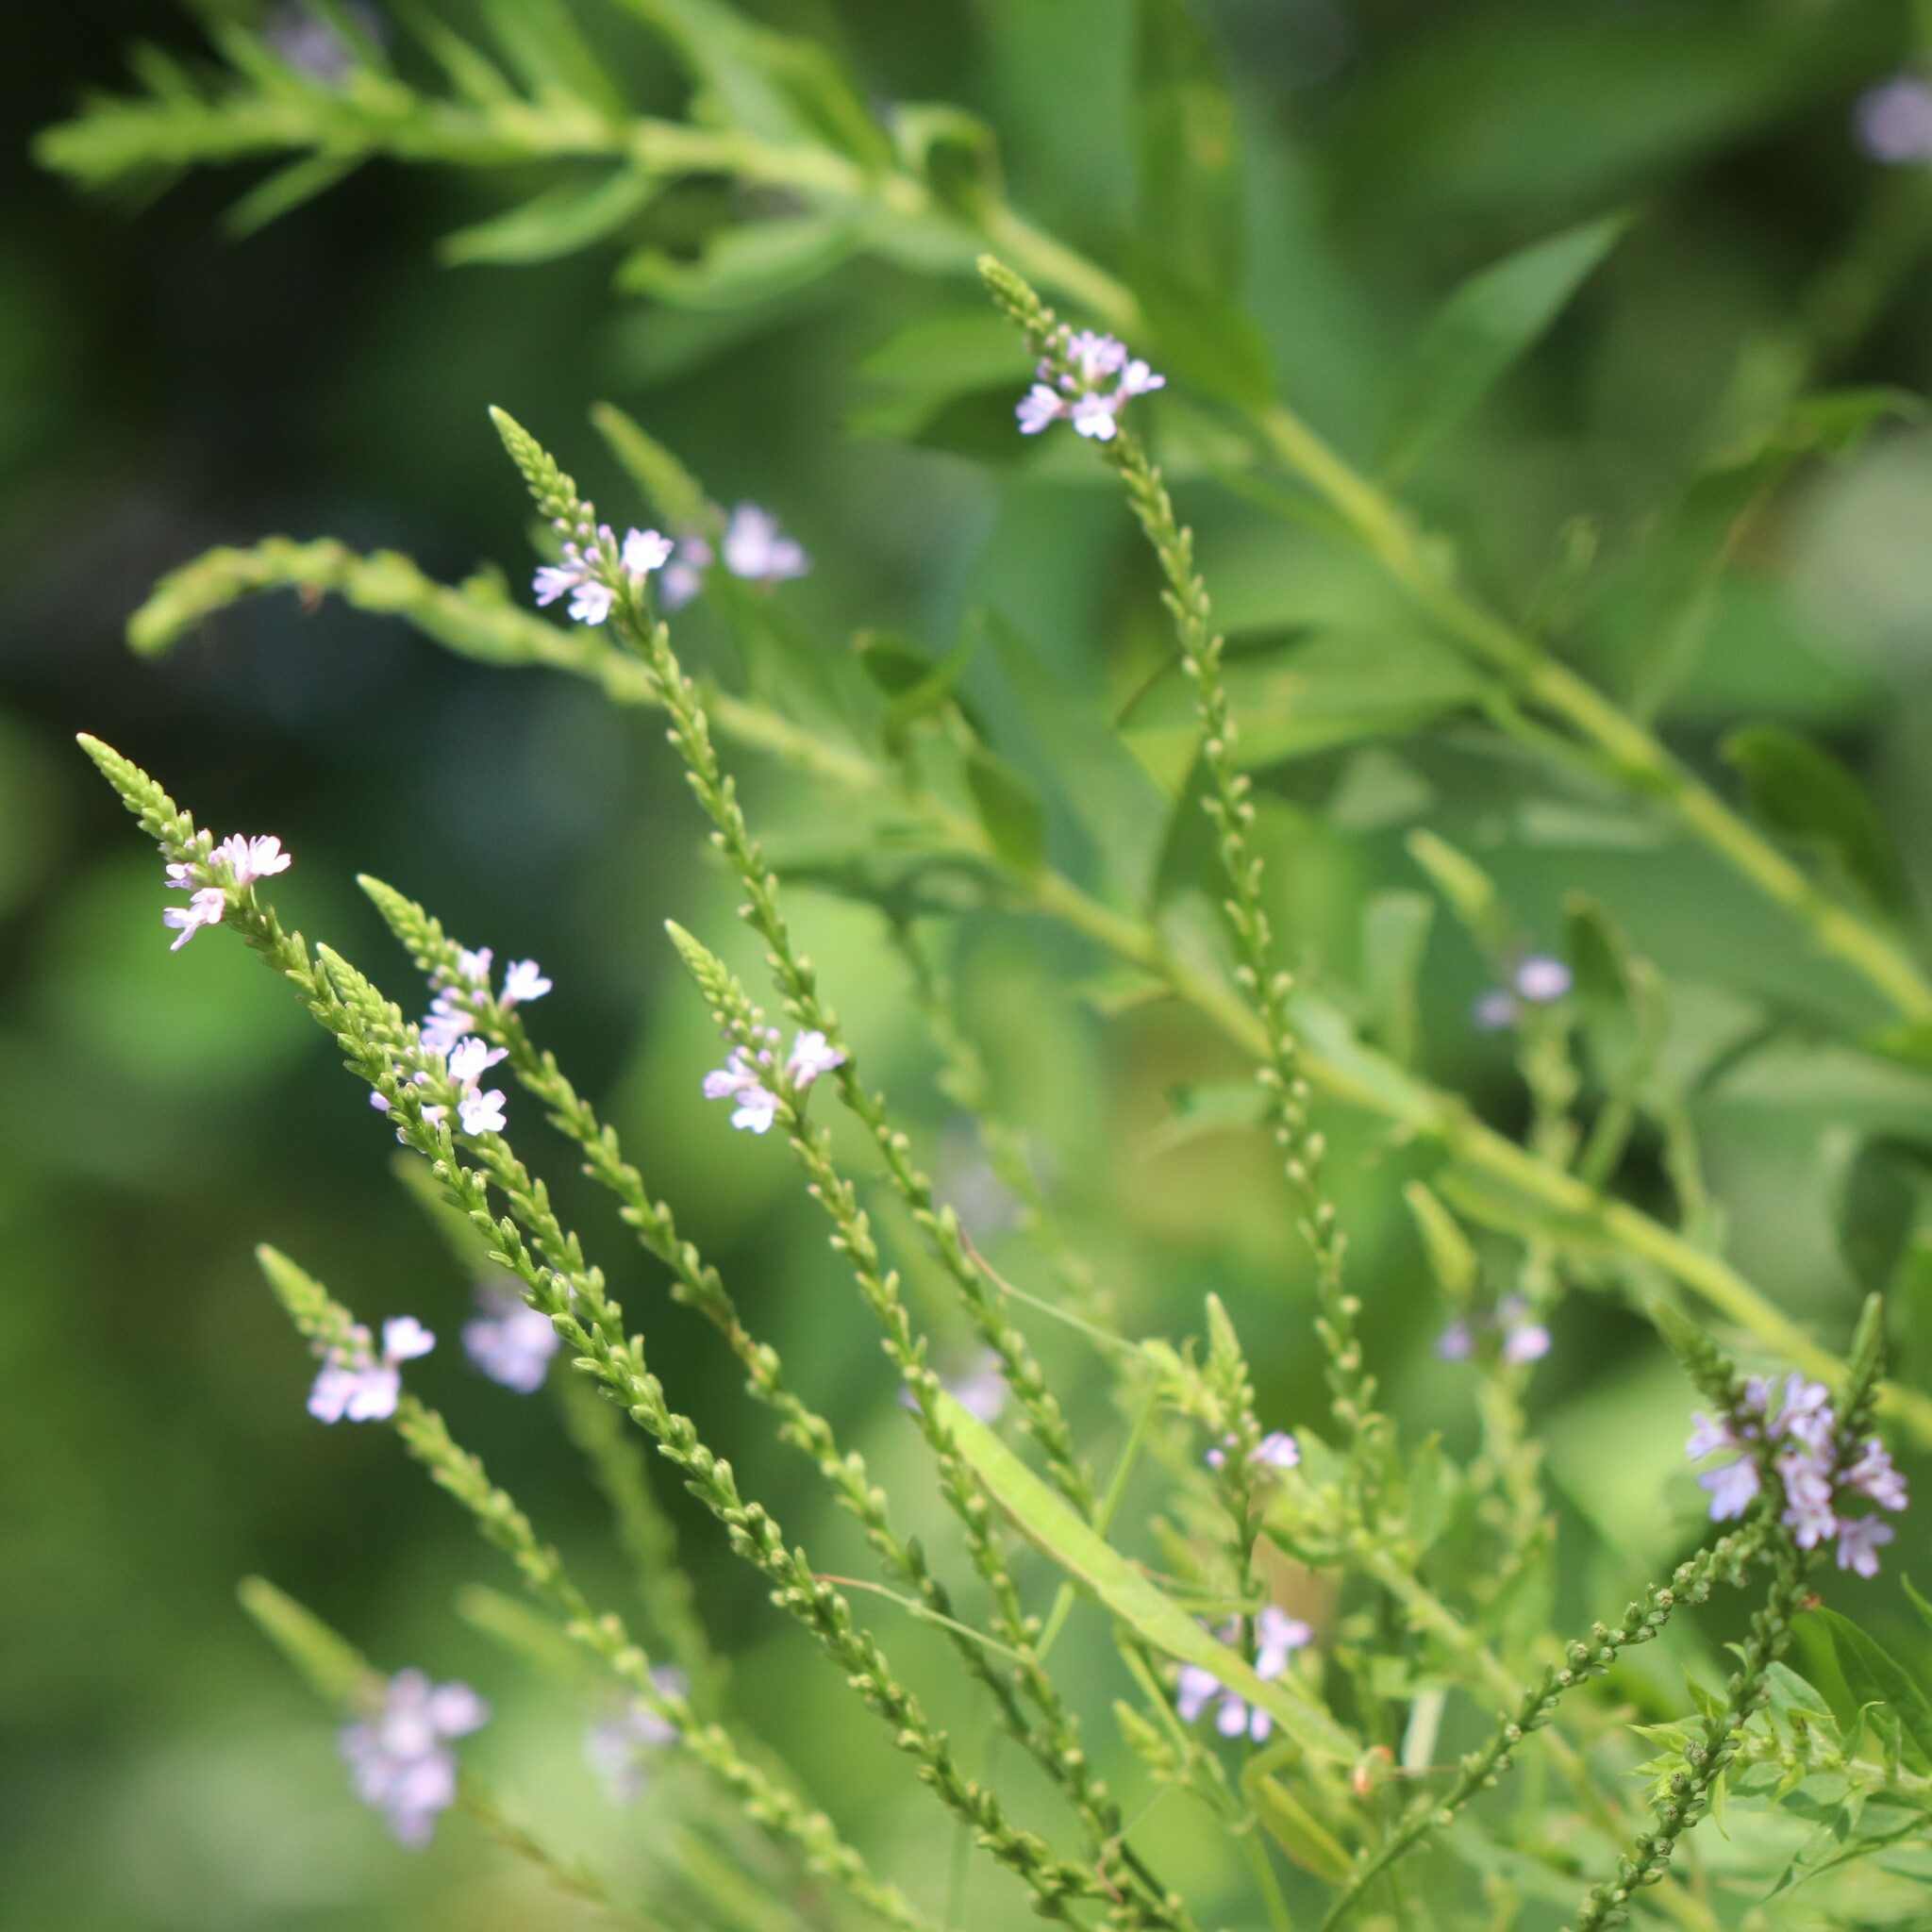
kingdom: Plantae
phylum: Tracheophyta
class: Magnoliopsida
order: Lamiales
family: Verbenaceae
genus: Verbena
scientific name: Verbena hastata
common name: American blue vervain
